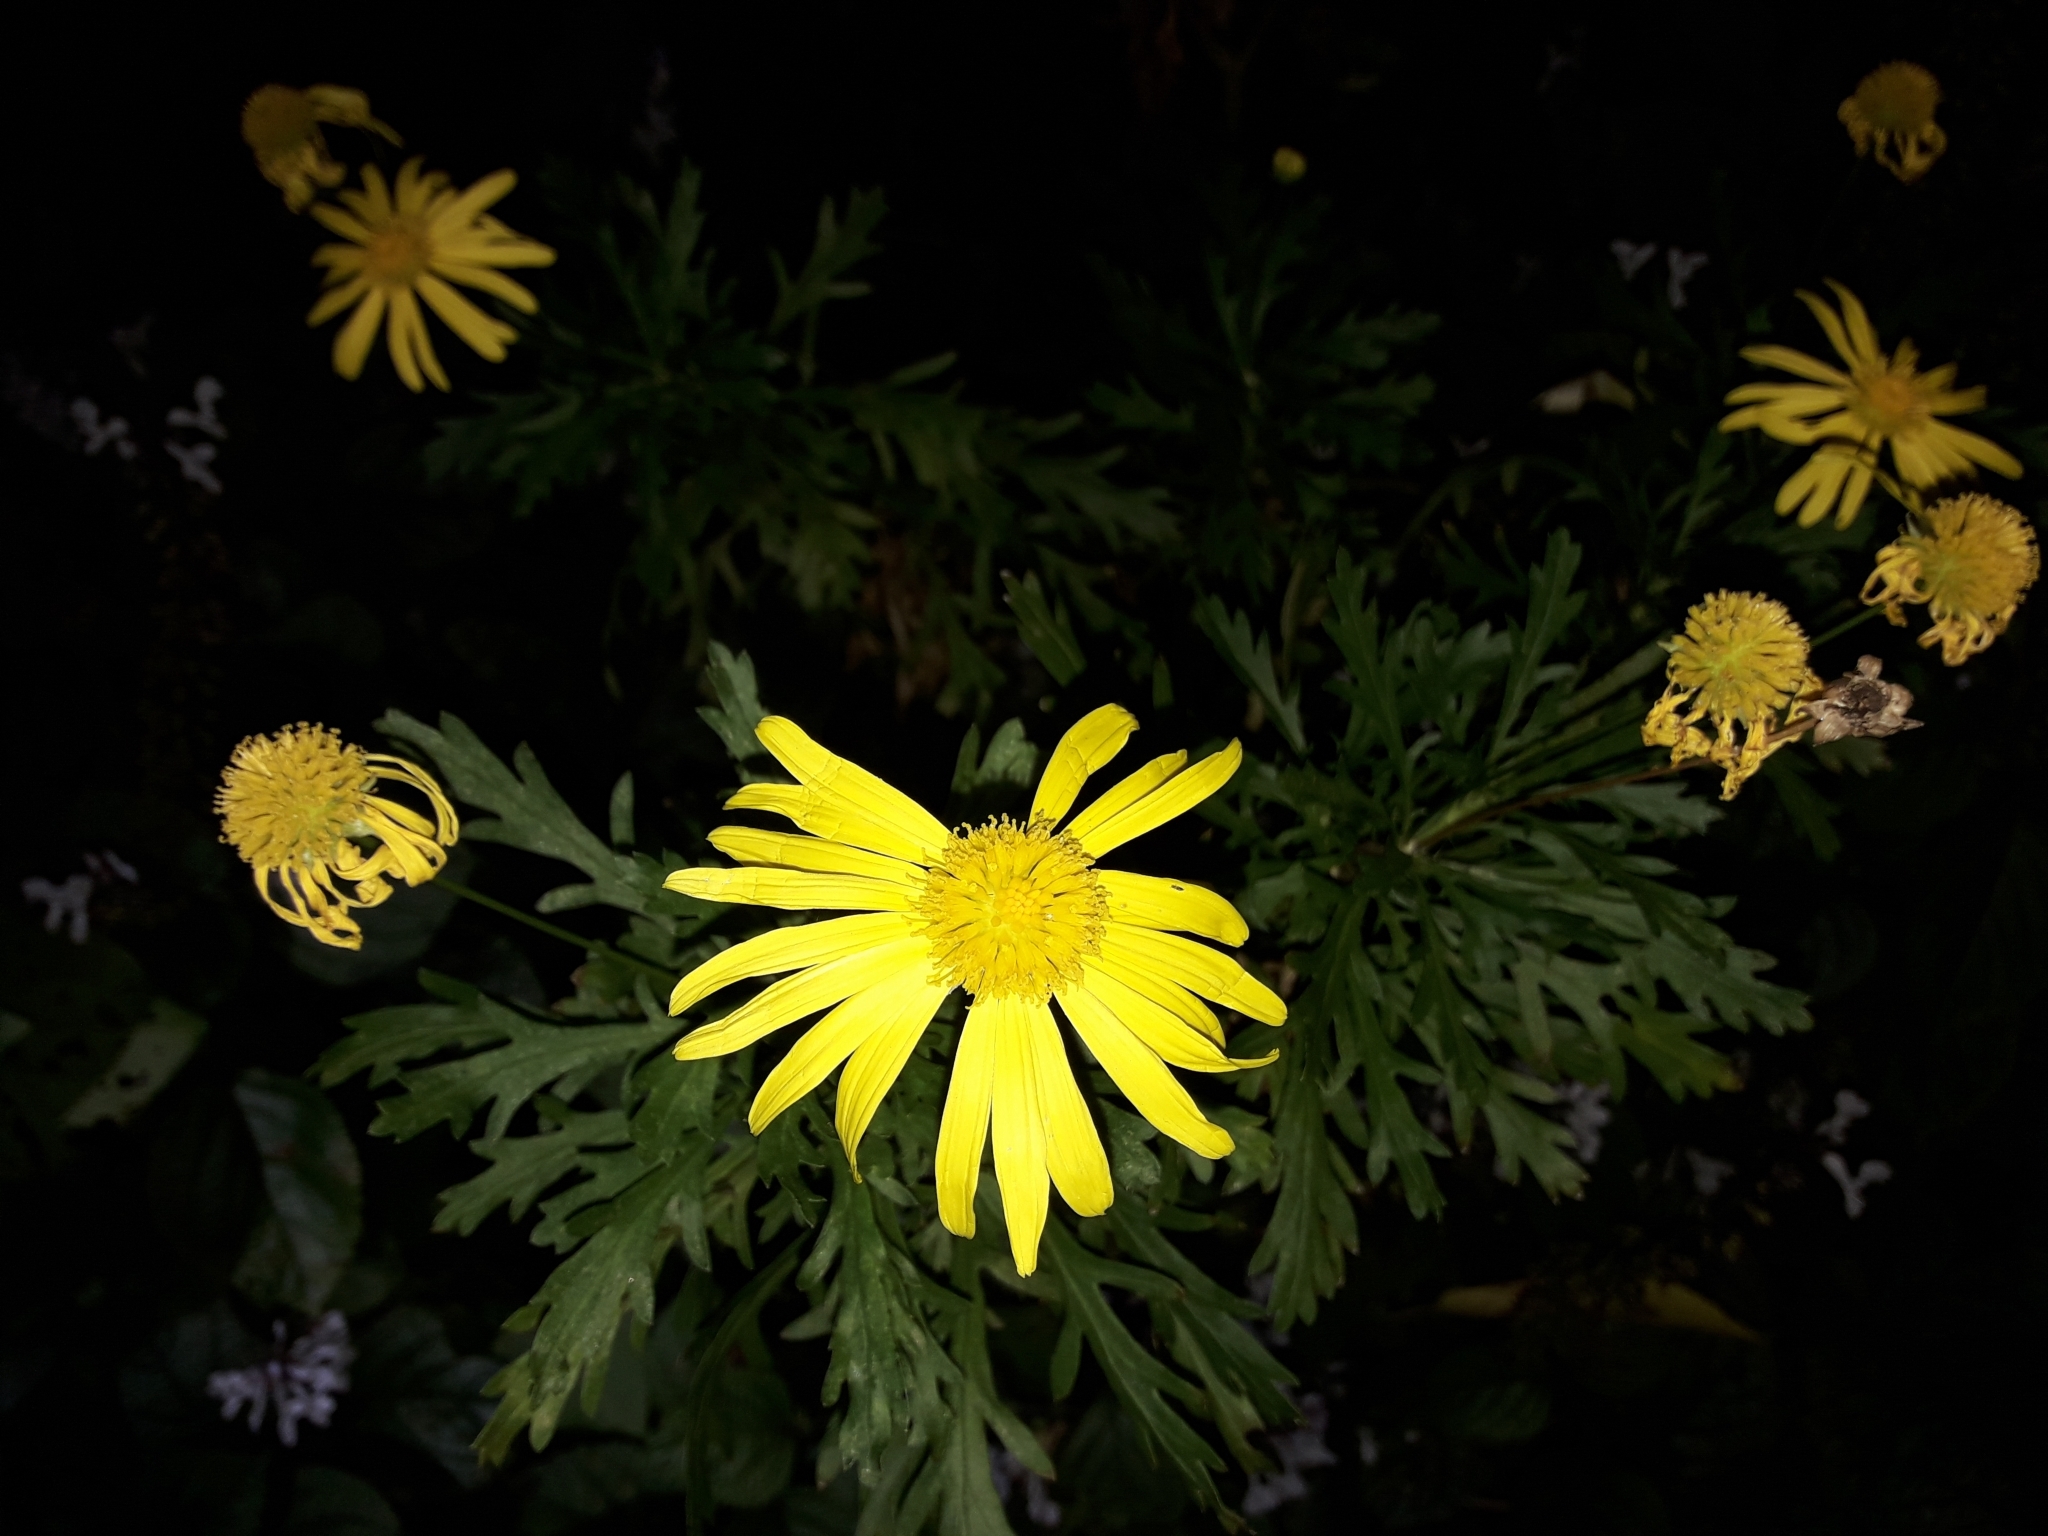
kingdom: Plantae
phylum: Tracheophyta
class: Magnoliopsida
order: Asterales
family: Asteraceae
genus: Euryops
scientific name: Euryops chrysanthemoides
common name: Bull's eye
